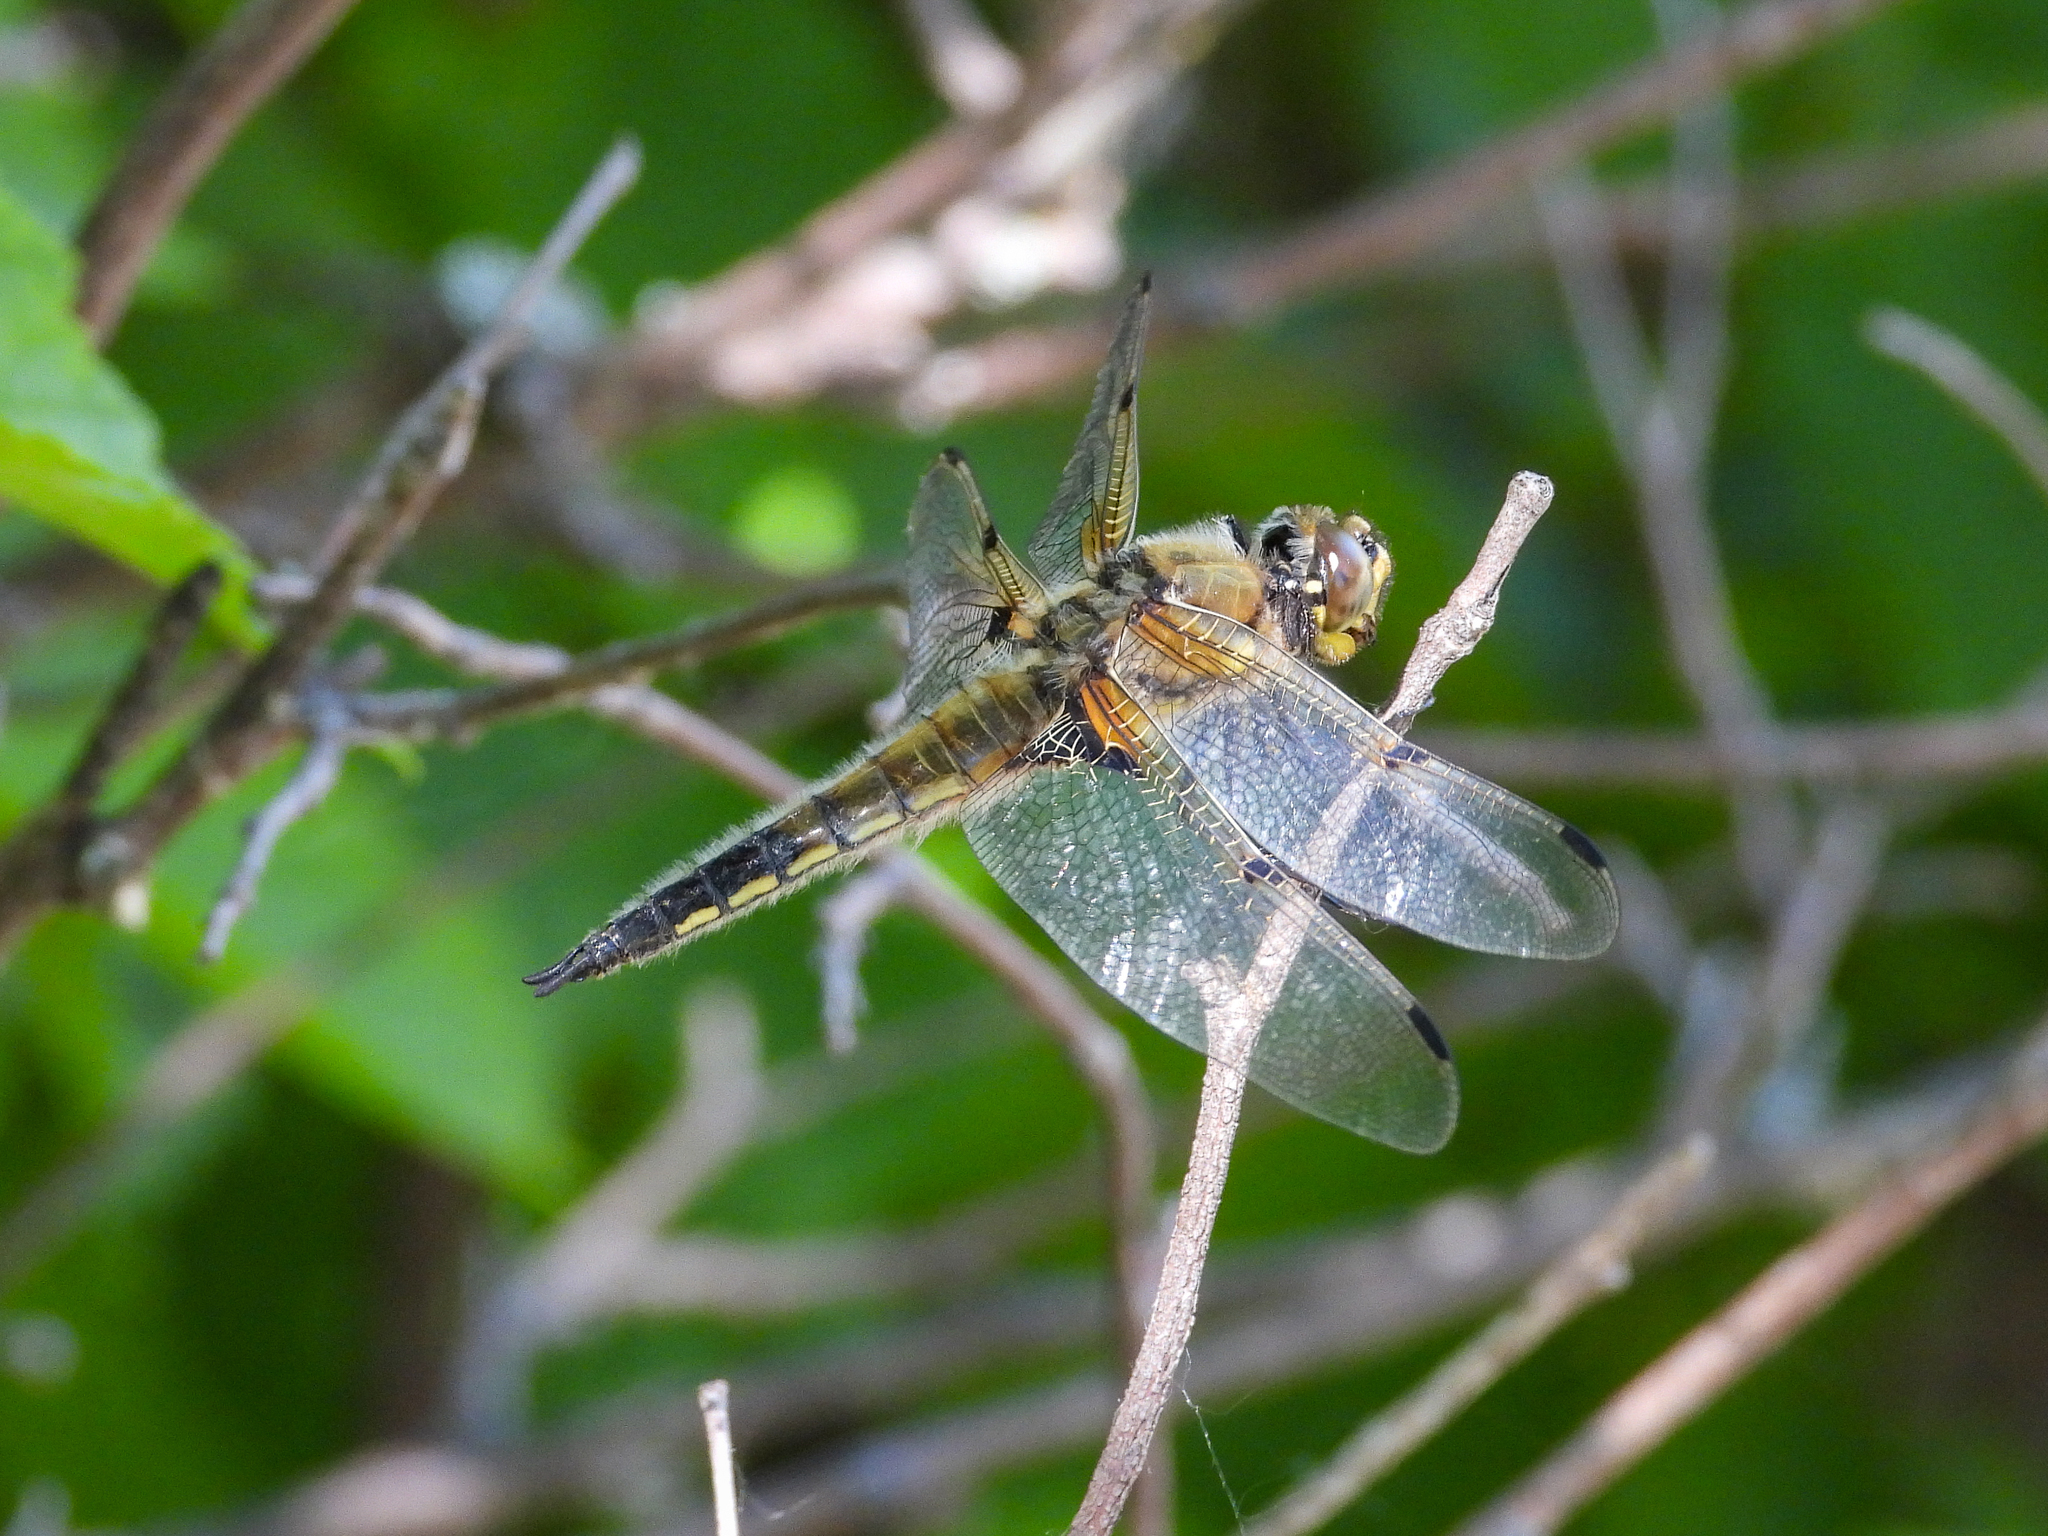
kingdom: Animalia
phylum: Arthropoda
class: Insecta
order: Odonata
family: Libellulidae
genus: Libellula
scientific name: Libellula quadrimaculata
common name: Four-spotted chaser
